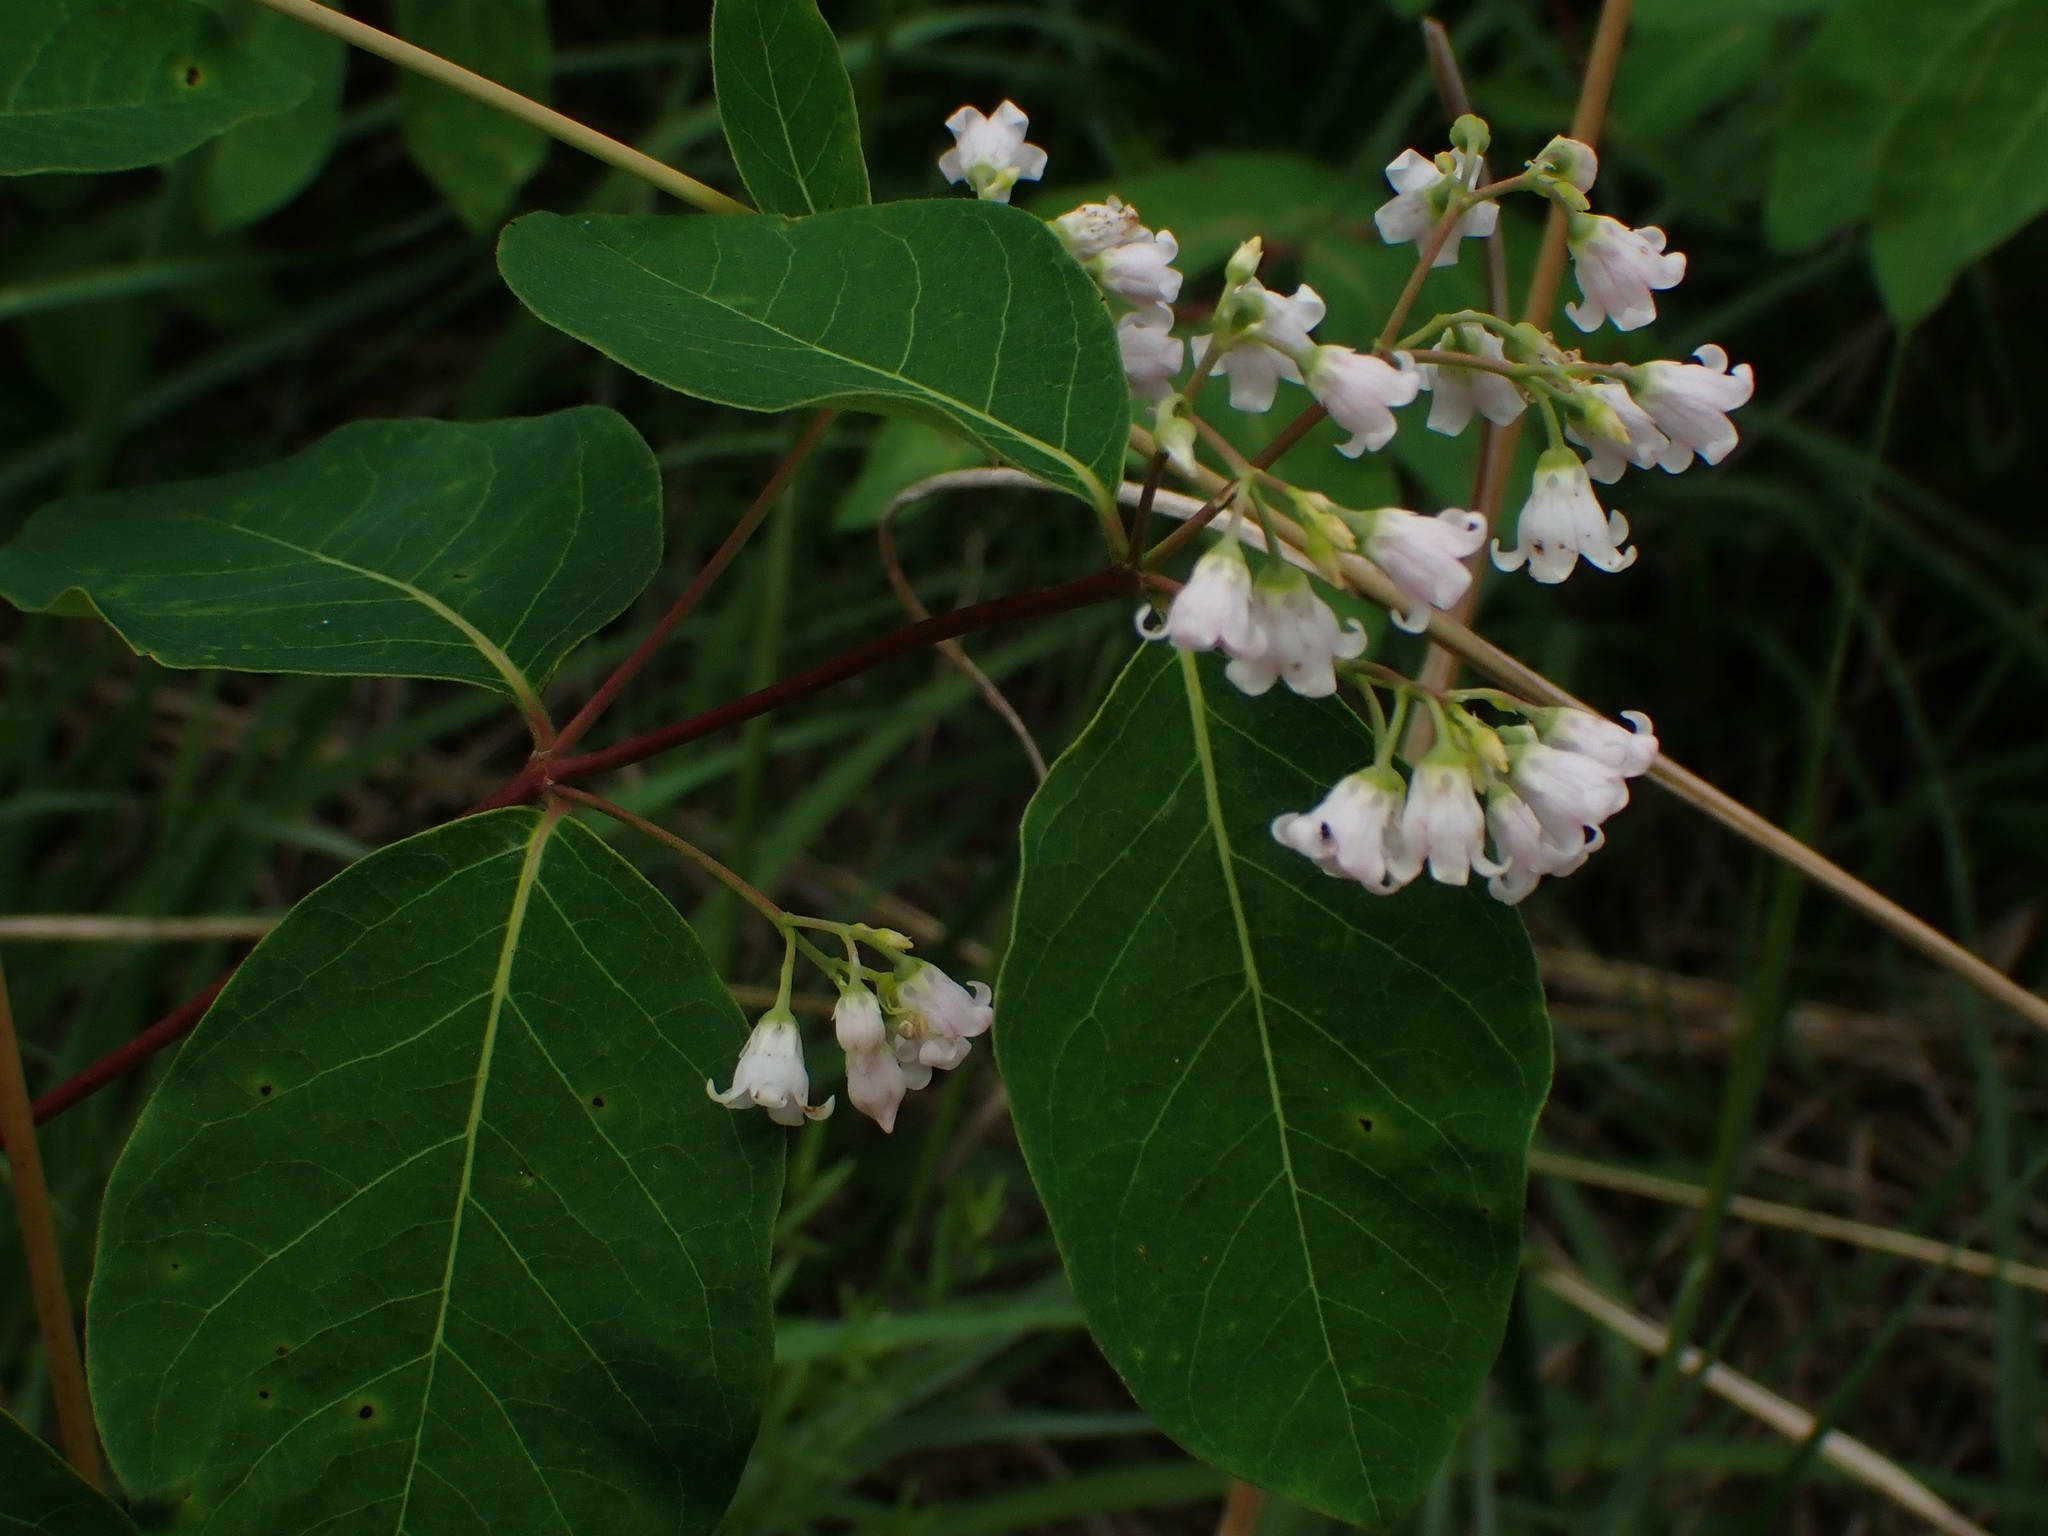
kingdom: Plantae
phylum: Tracheophyta
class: Magnoliopsida
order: Gentianales
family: Apocynaceae
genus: Apocynum
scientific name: Apocynum androsaemifolium
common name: Spreading dogbane
